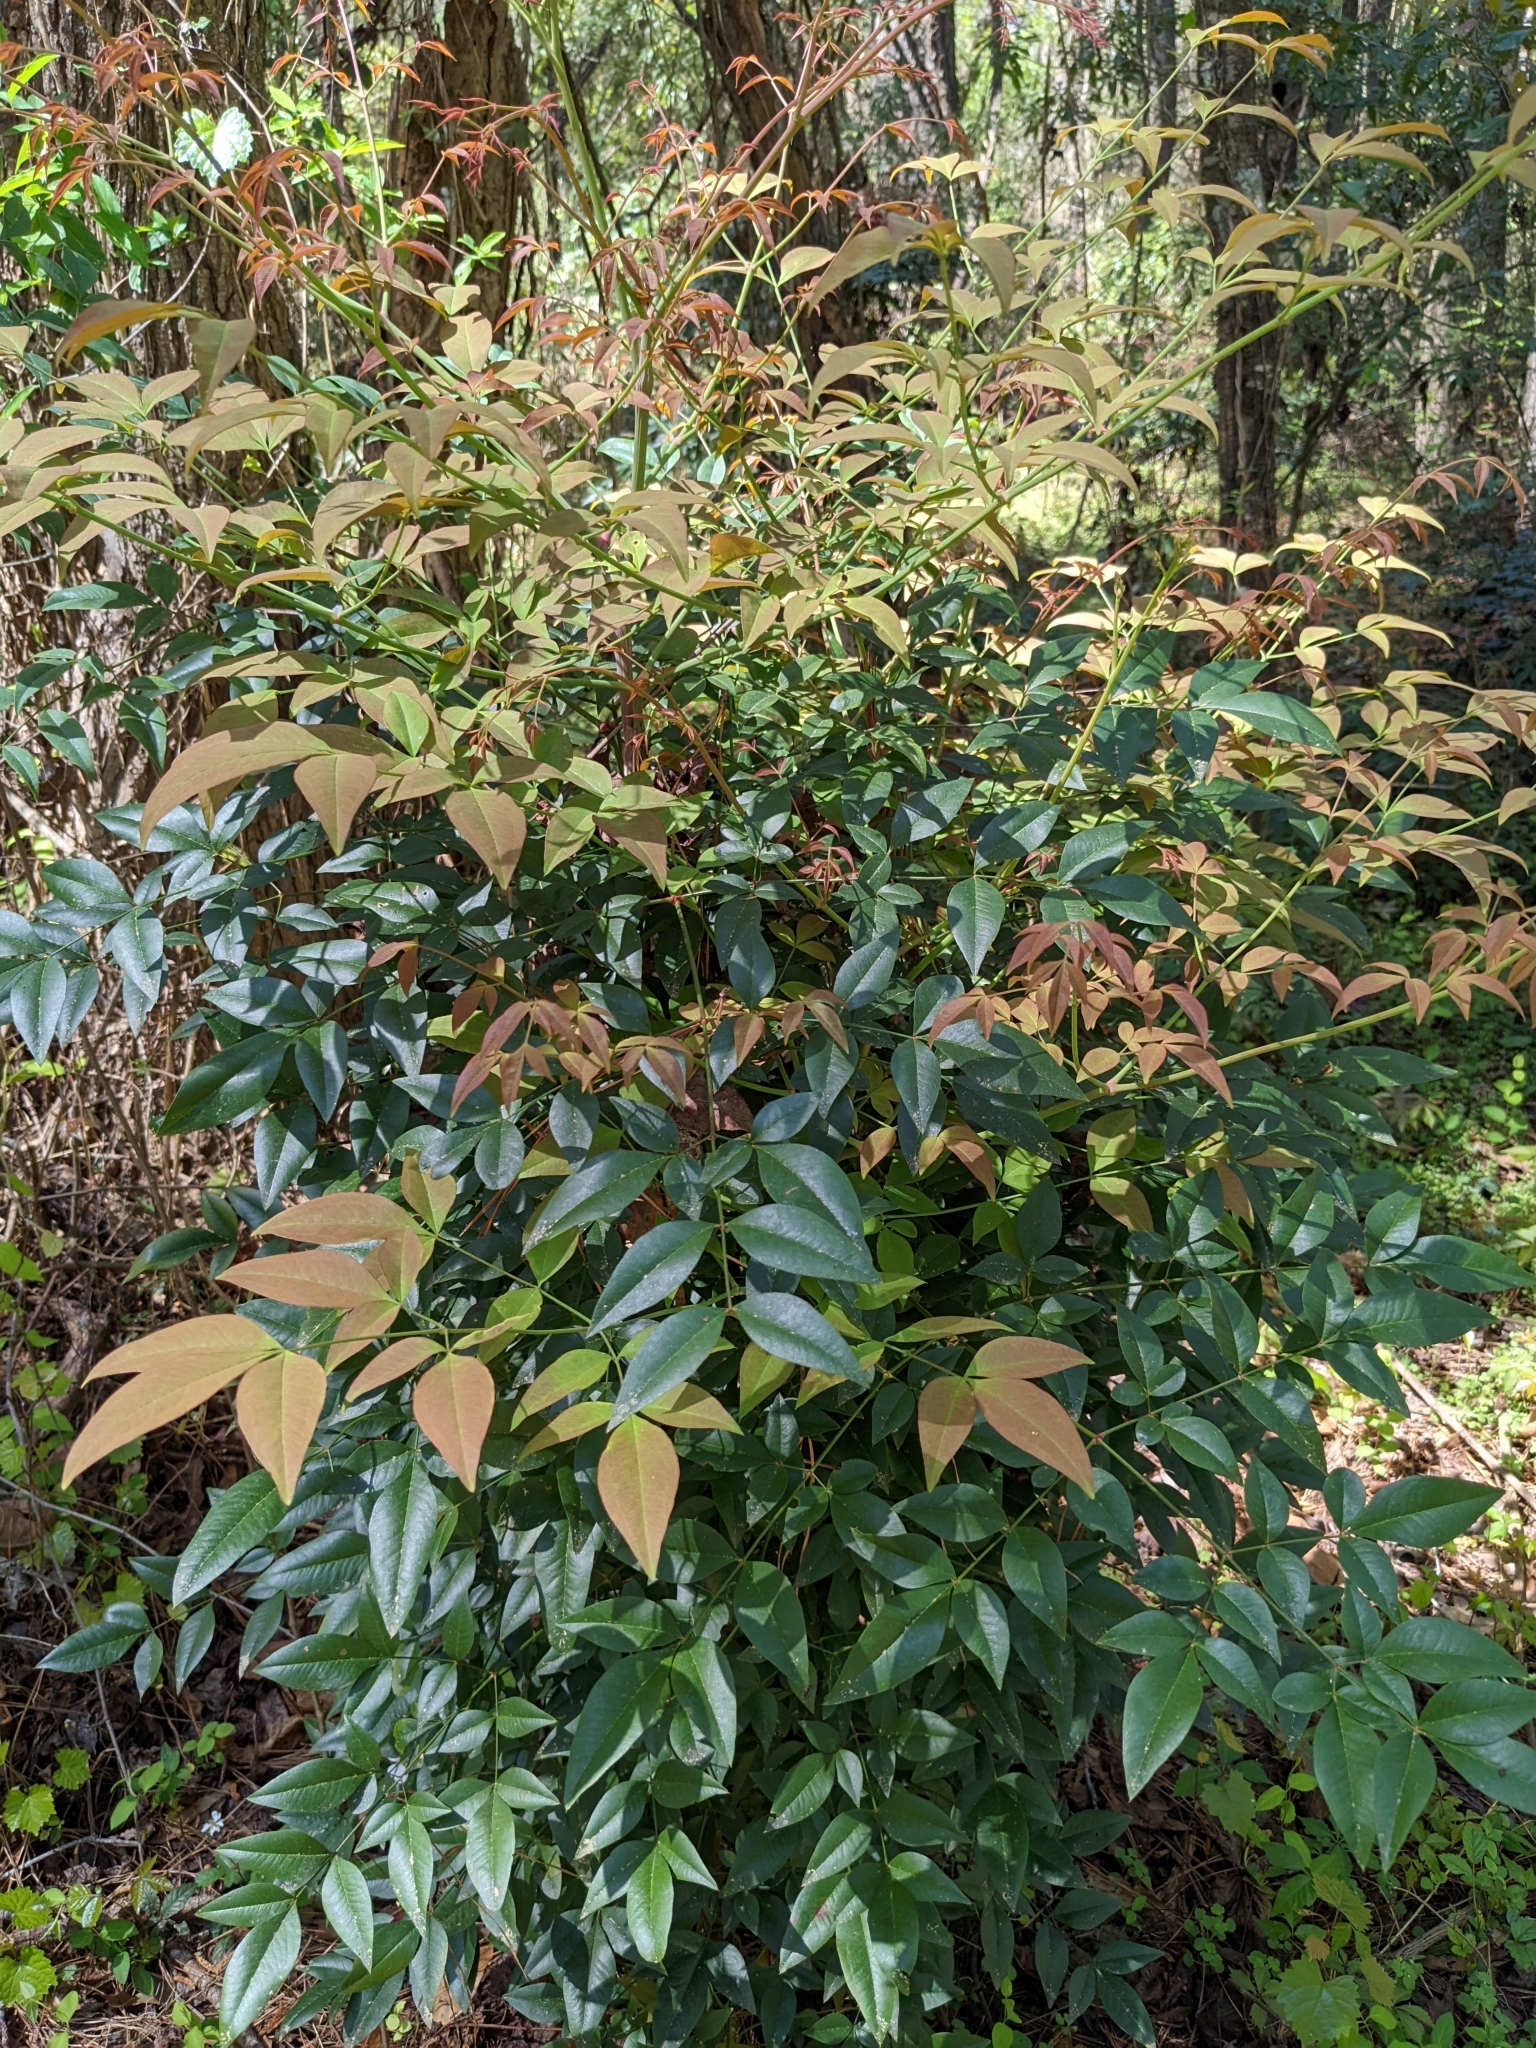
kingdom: Plantae
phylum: Tracheophyta
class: Magnoliopsida
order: Ranunculales
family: Berberidaceae
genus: Nandina
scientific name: Nandina domestica
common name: Sacred bamboo
